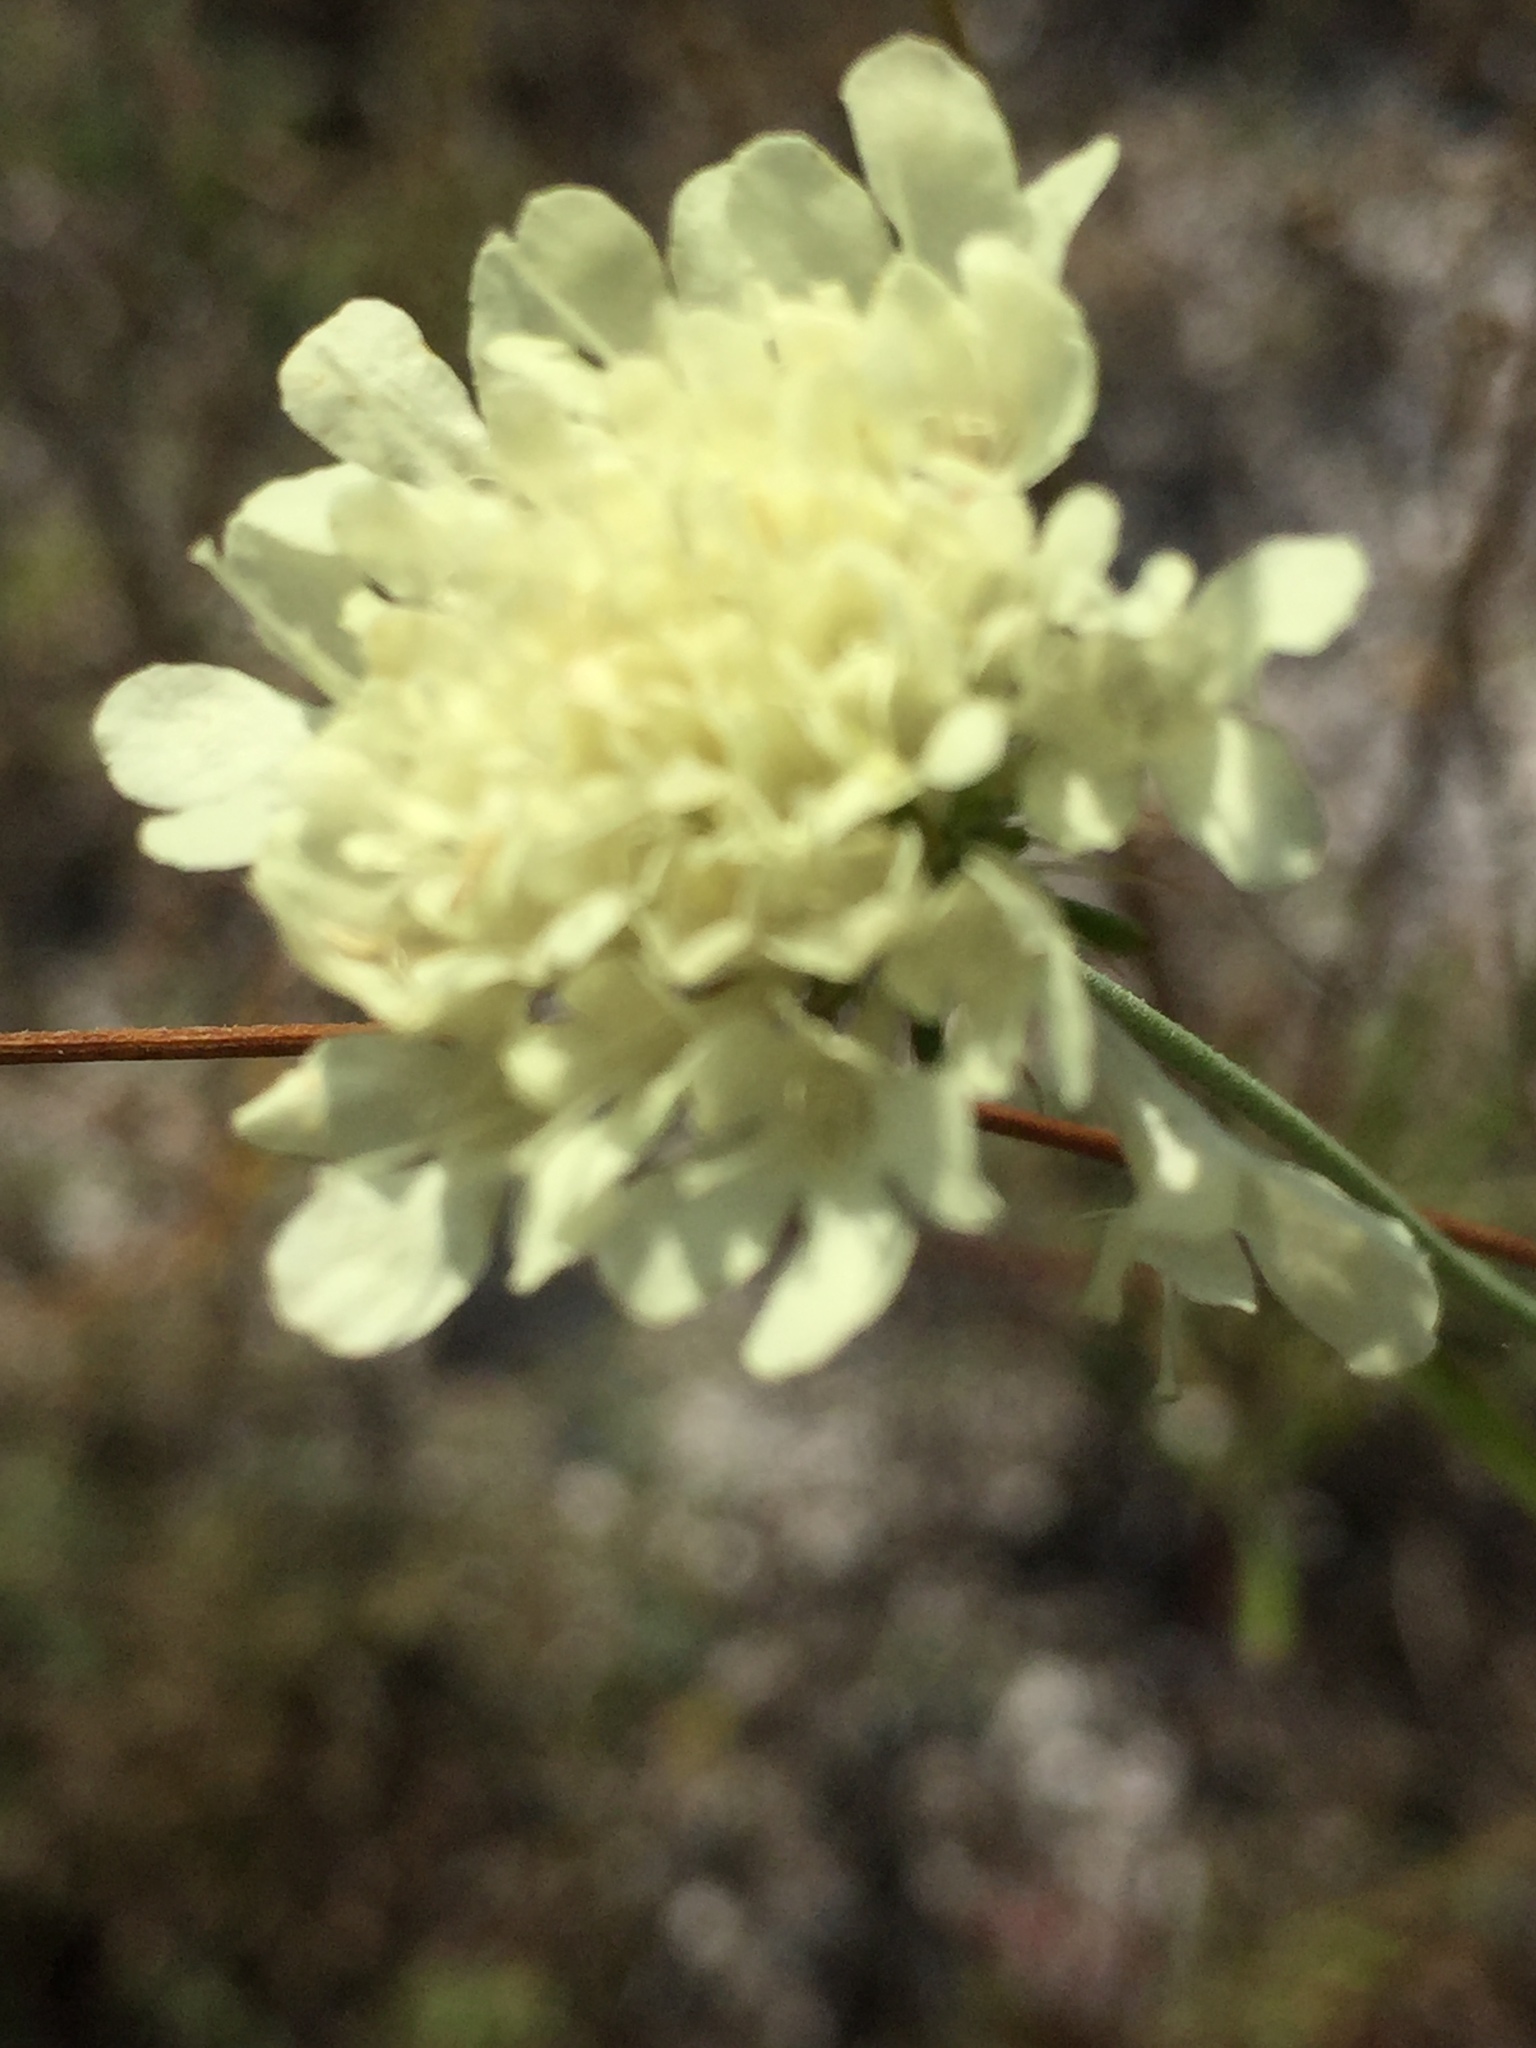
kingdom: Plantae
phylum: Tracheophyta
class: Magnoliopsida
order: Dipsacales
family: Caprifoliaceae
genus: Scabiosa
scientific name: Scabiosa ochroleuca
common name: Cream pincushions
